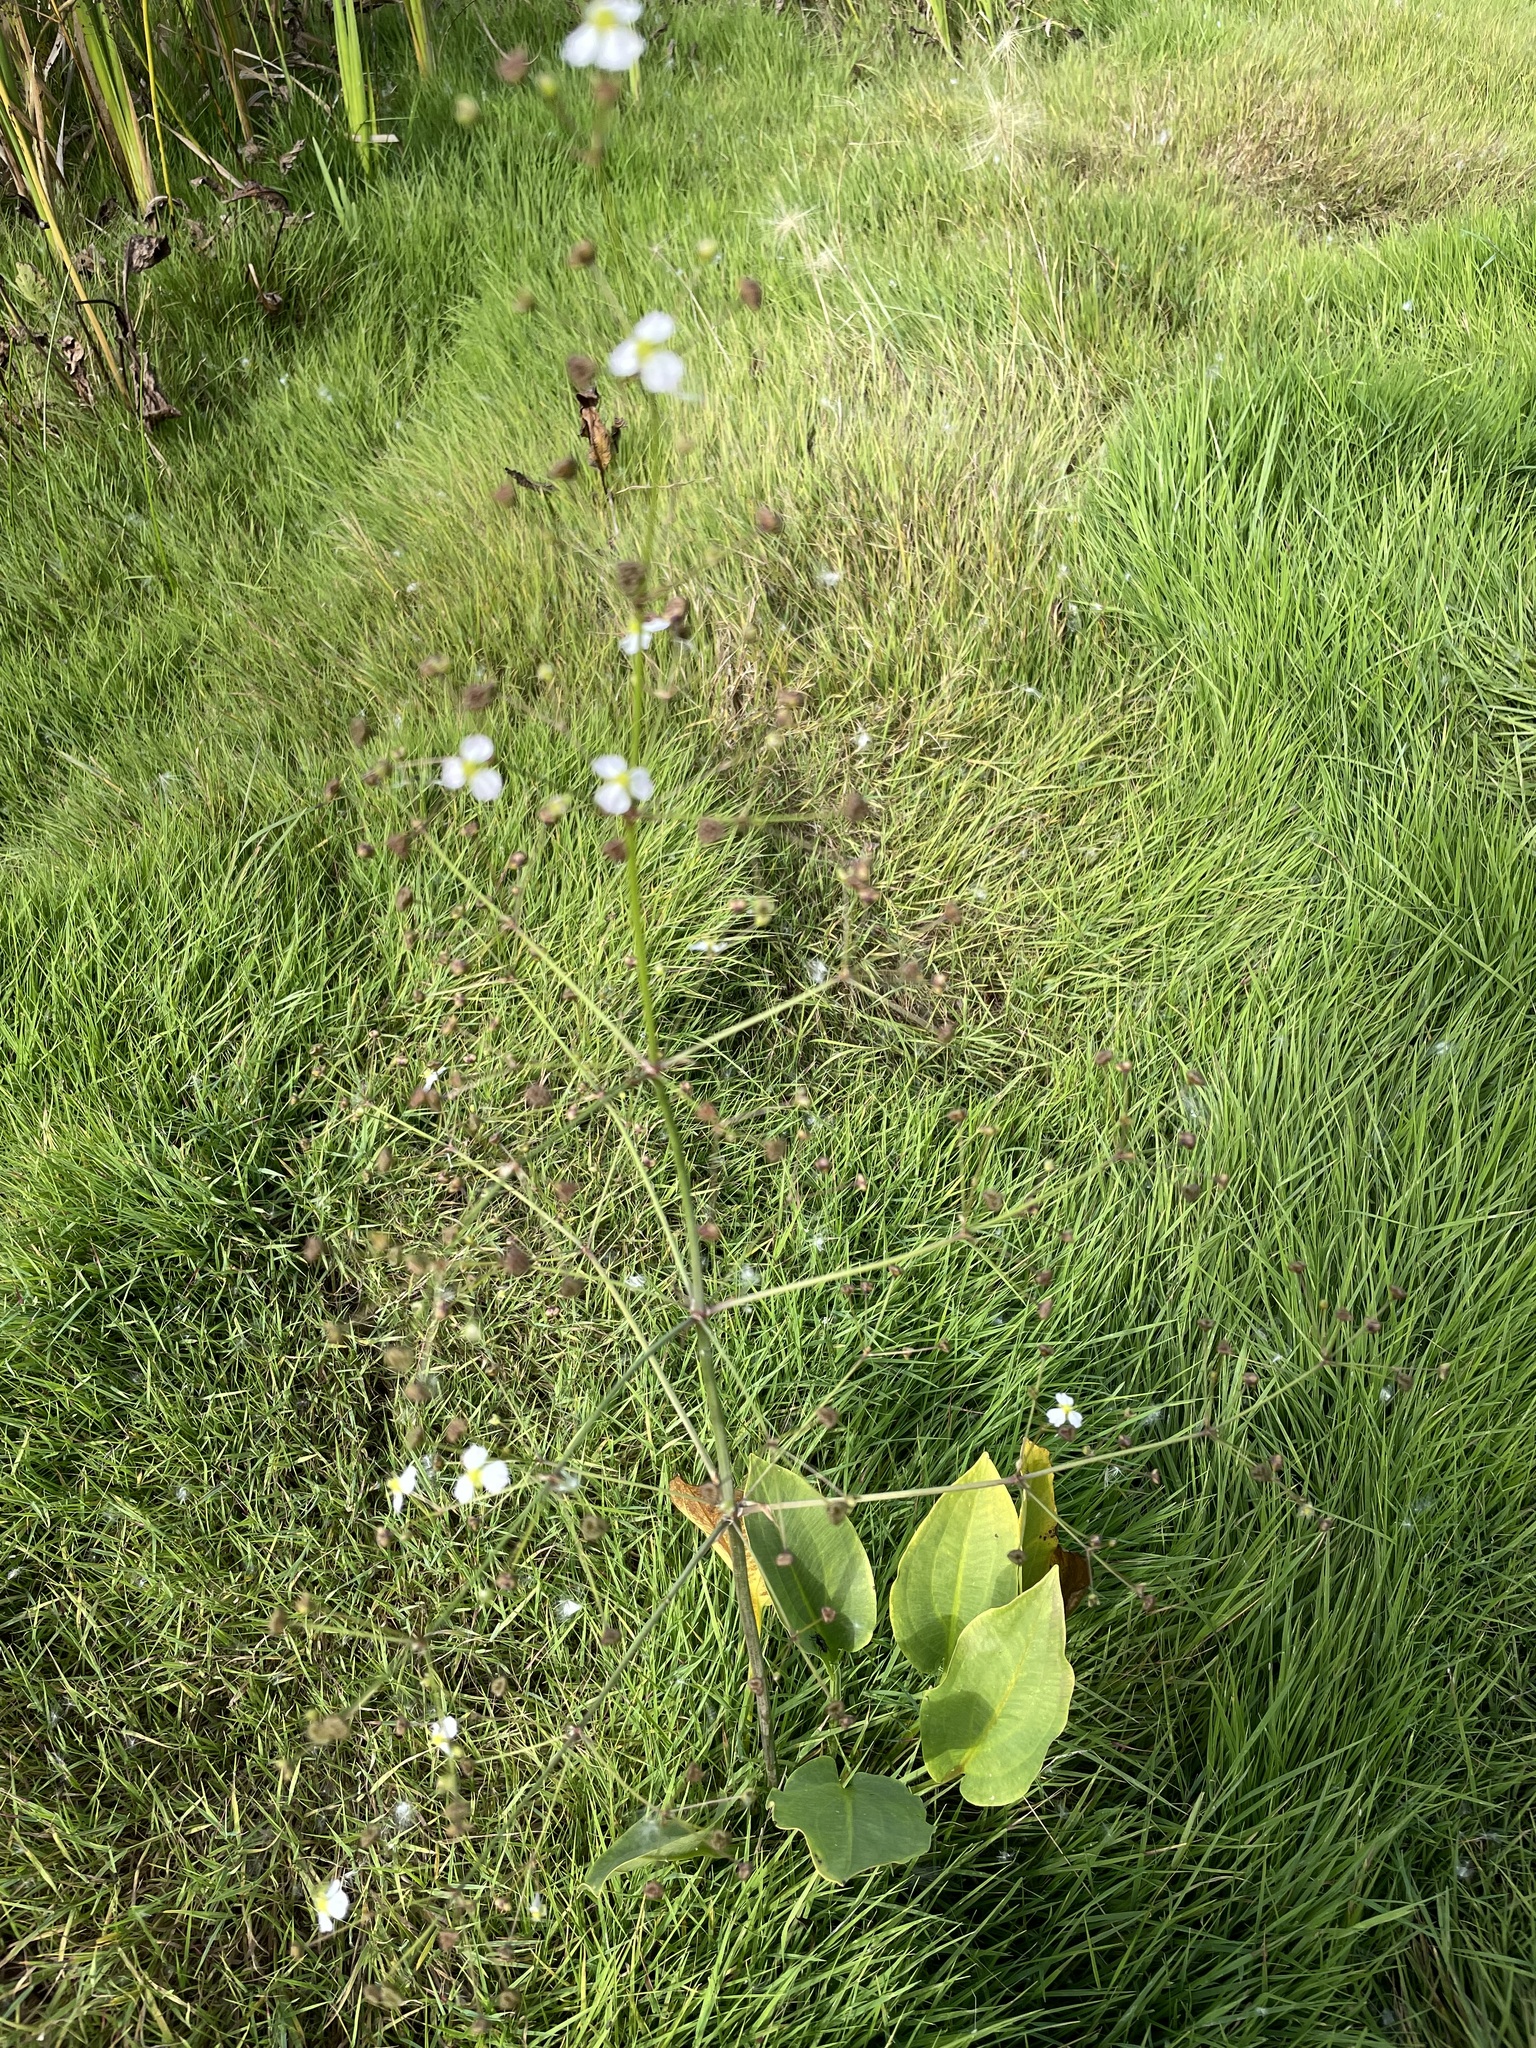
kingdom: Plantae
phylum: Tracheophyta
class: Liliopsida
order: Alismatales
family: Alismataceae
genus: Alisma
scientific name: Alisma plantago-aquatica
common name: Water-plantain
